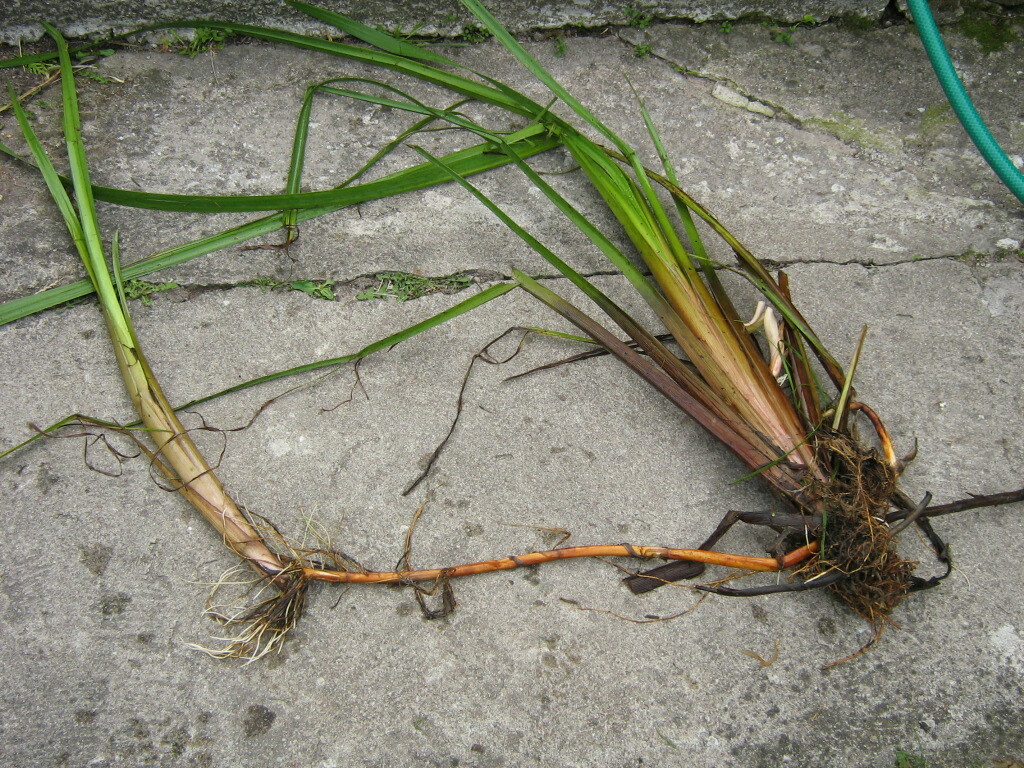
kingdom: Plantae
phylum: Tracheophyta
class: Liliopsida
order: Poales
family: Typhaceae
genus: Sparganium
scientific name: Sparganium erectum
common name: Branched bur-reed
